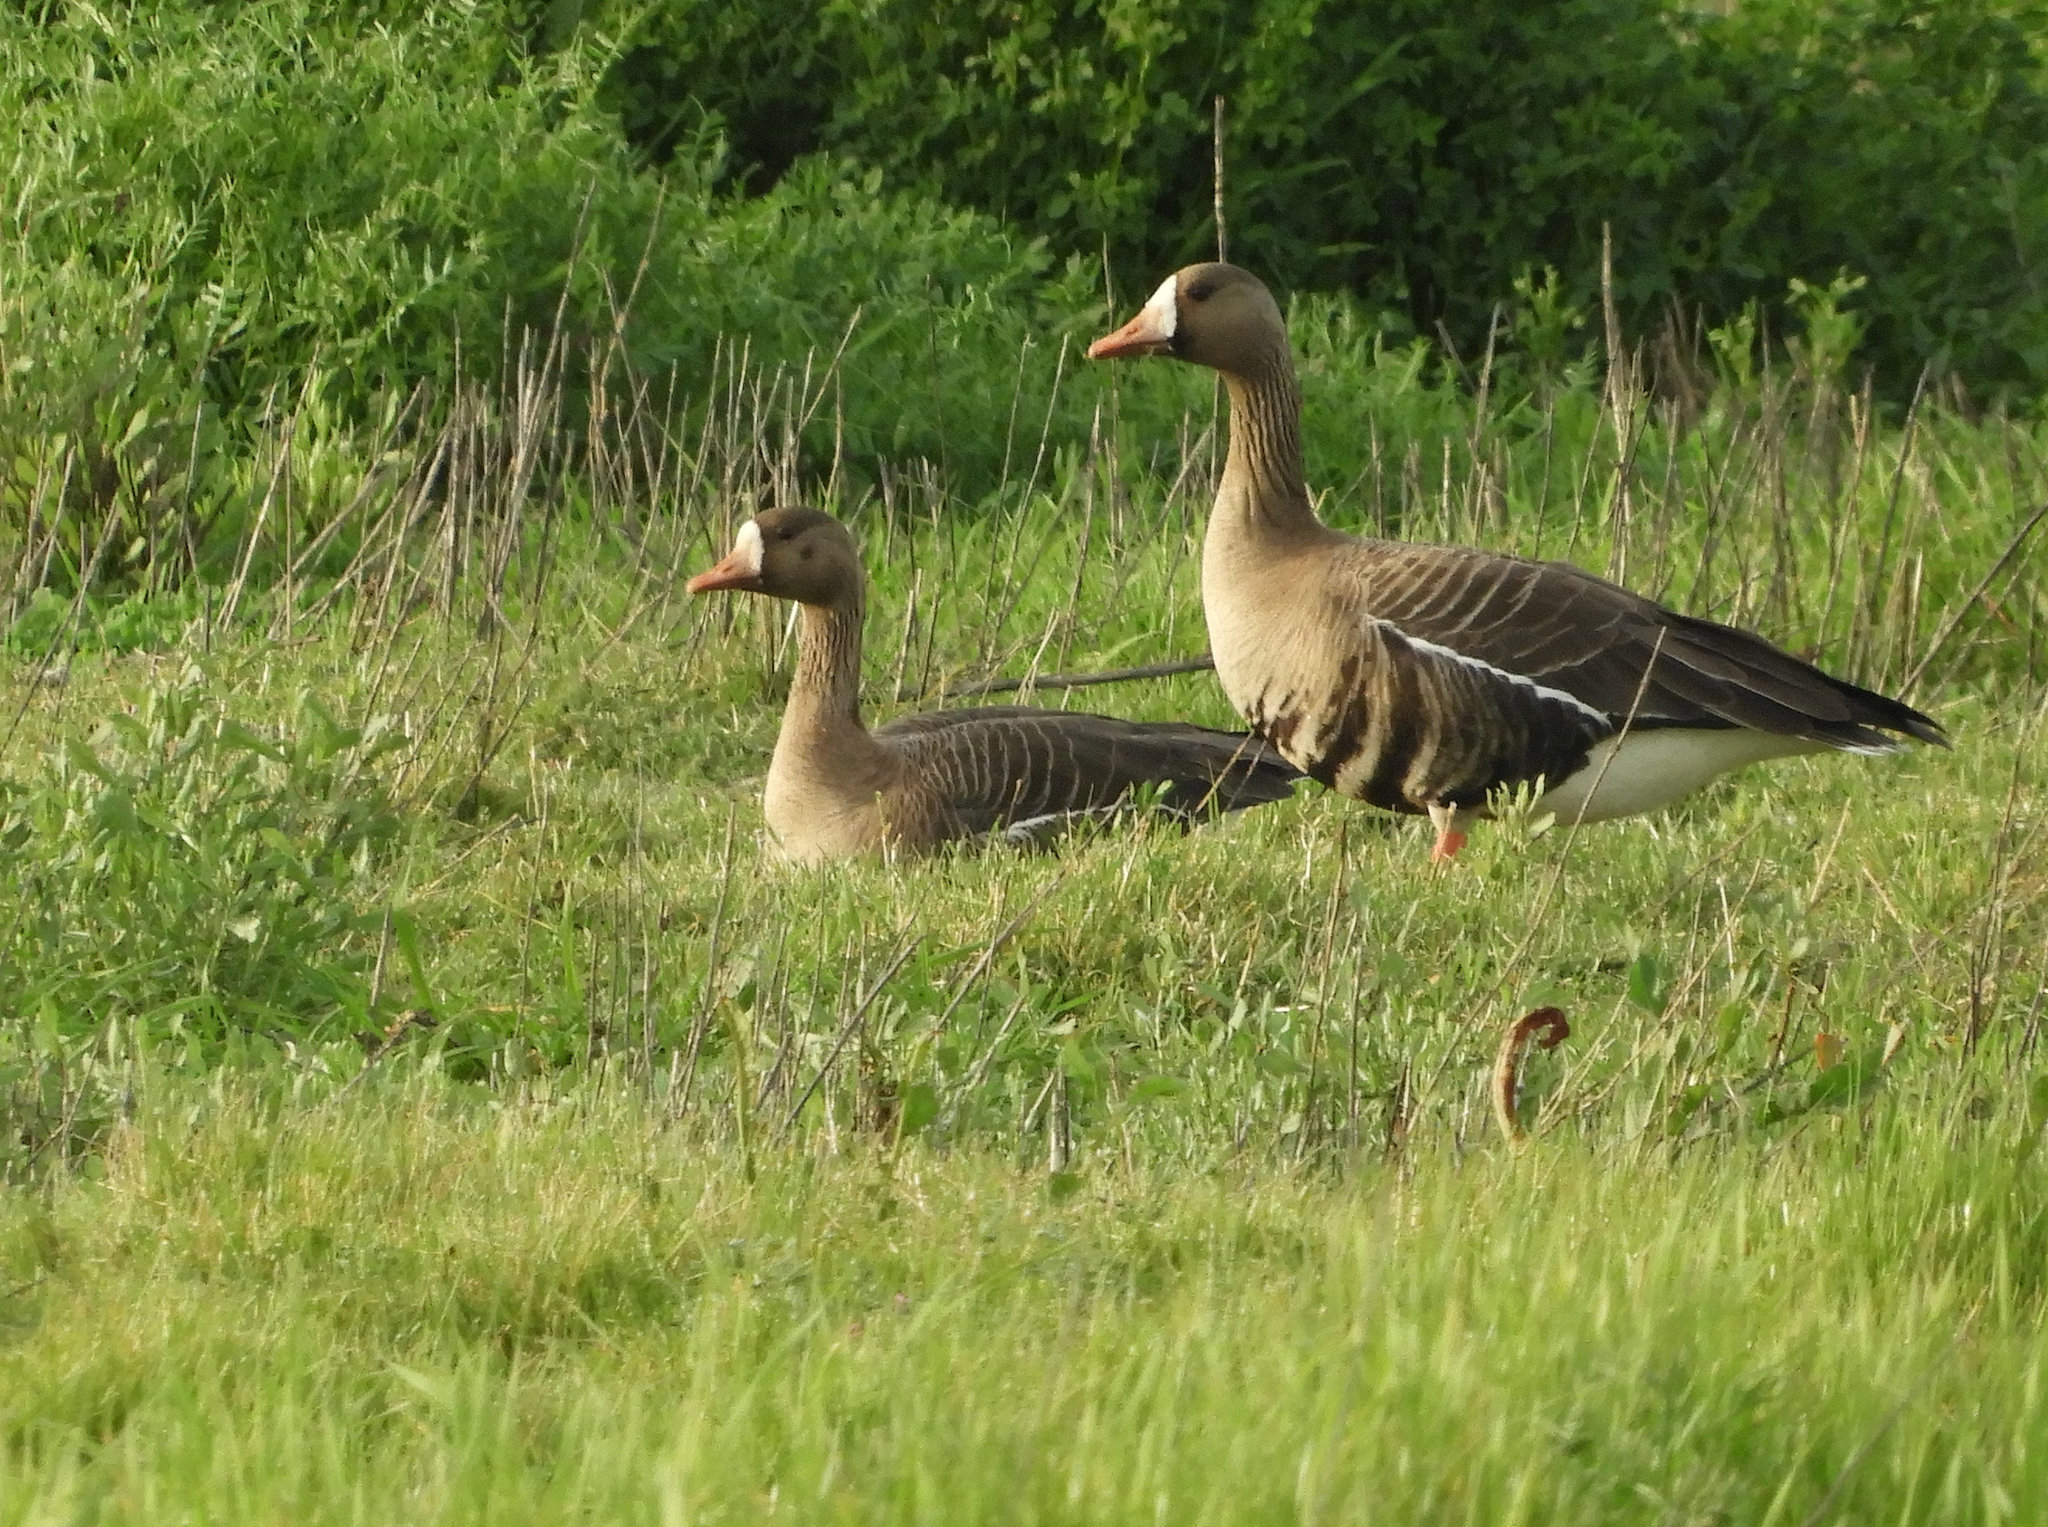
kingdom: Animalia
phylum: Chordata
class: Aves
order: Anseriformes
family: Anatidae
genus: Anser
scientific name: Anser albifrons
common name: Greater white-fronted goose
